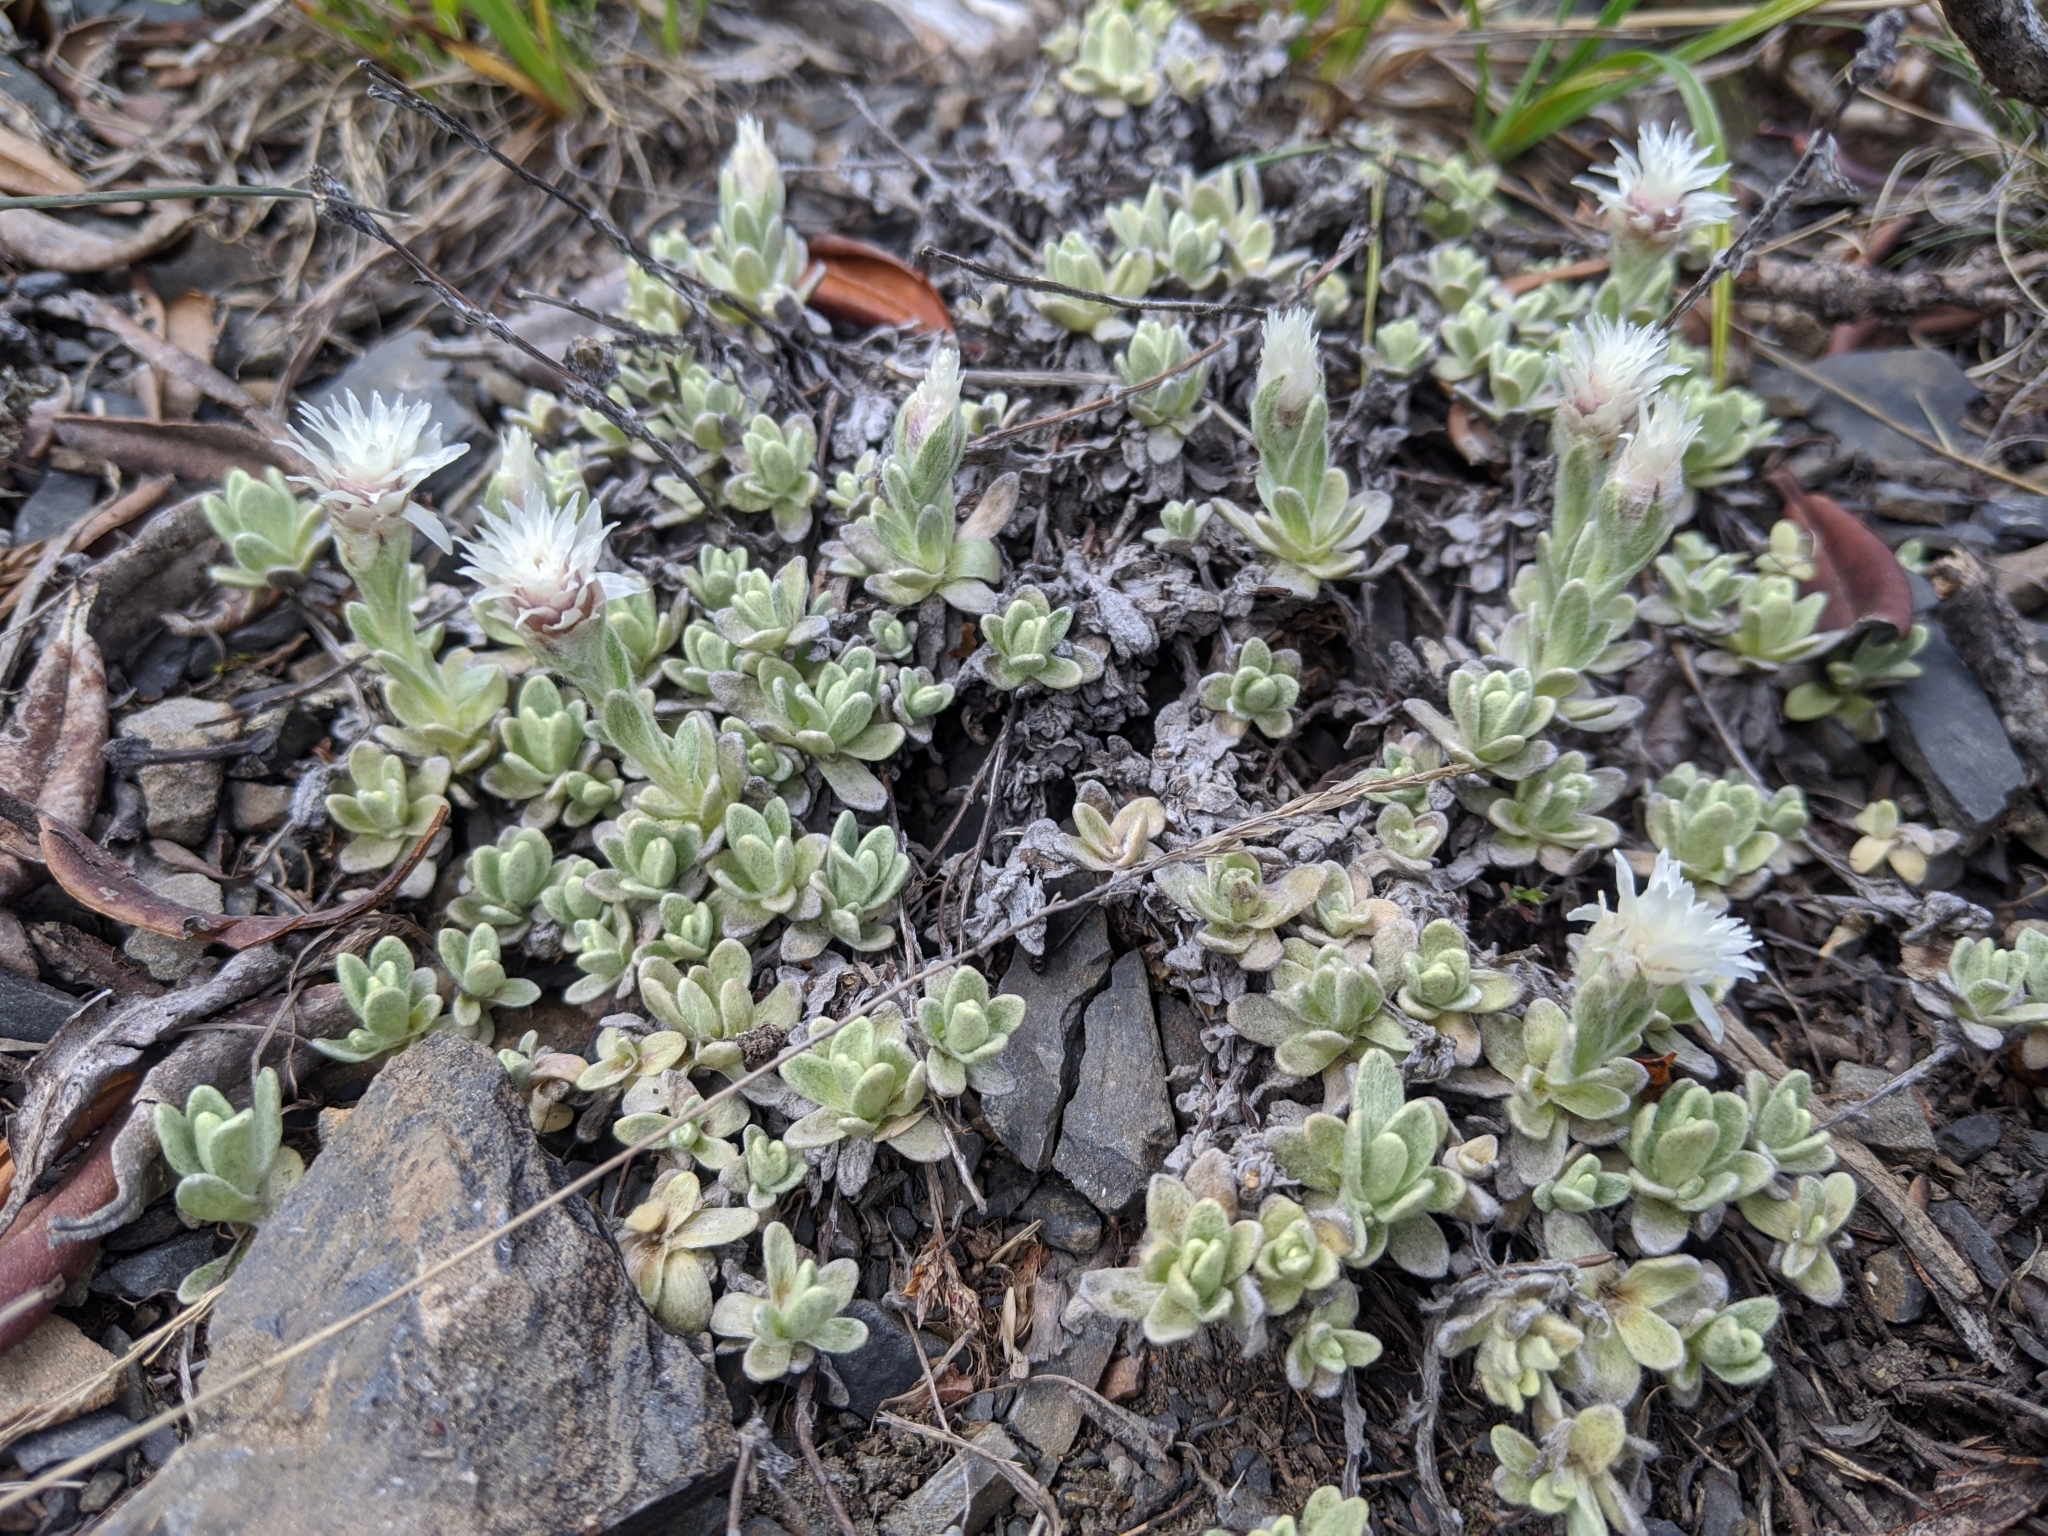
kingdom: Plantae
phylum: Tracheophyta
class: Magnoliopsida
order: Asterales
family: Asteraceae
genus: Anaphalis
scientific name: Anaphalis nepalensis
